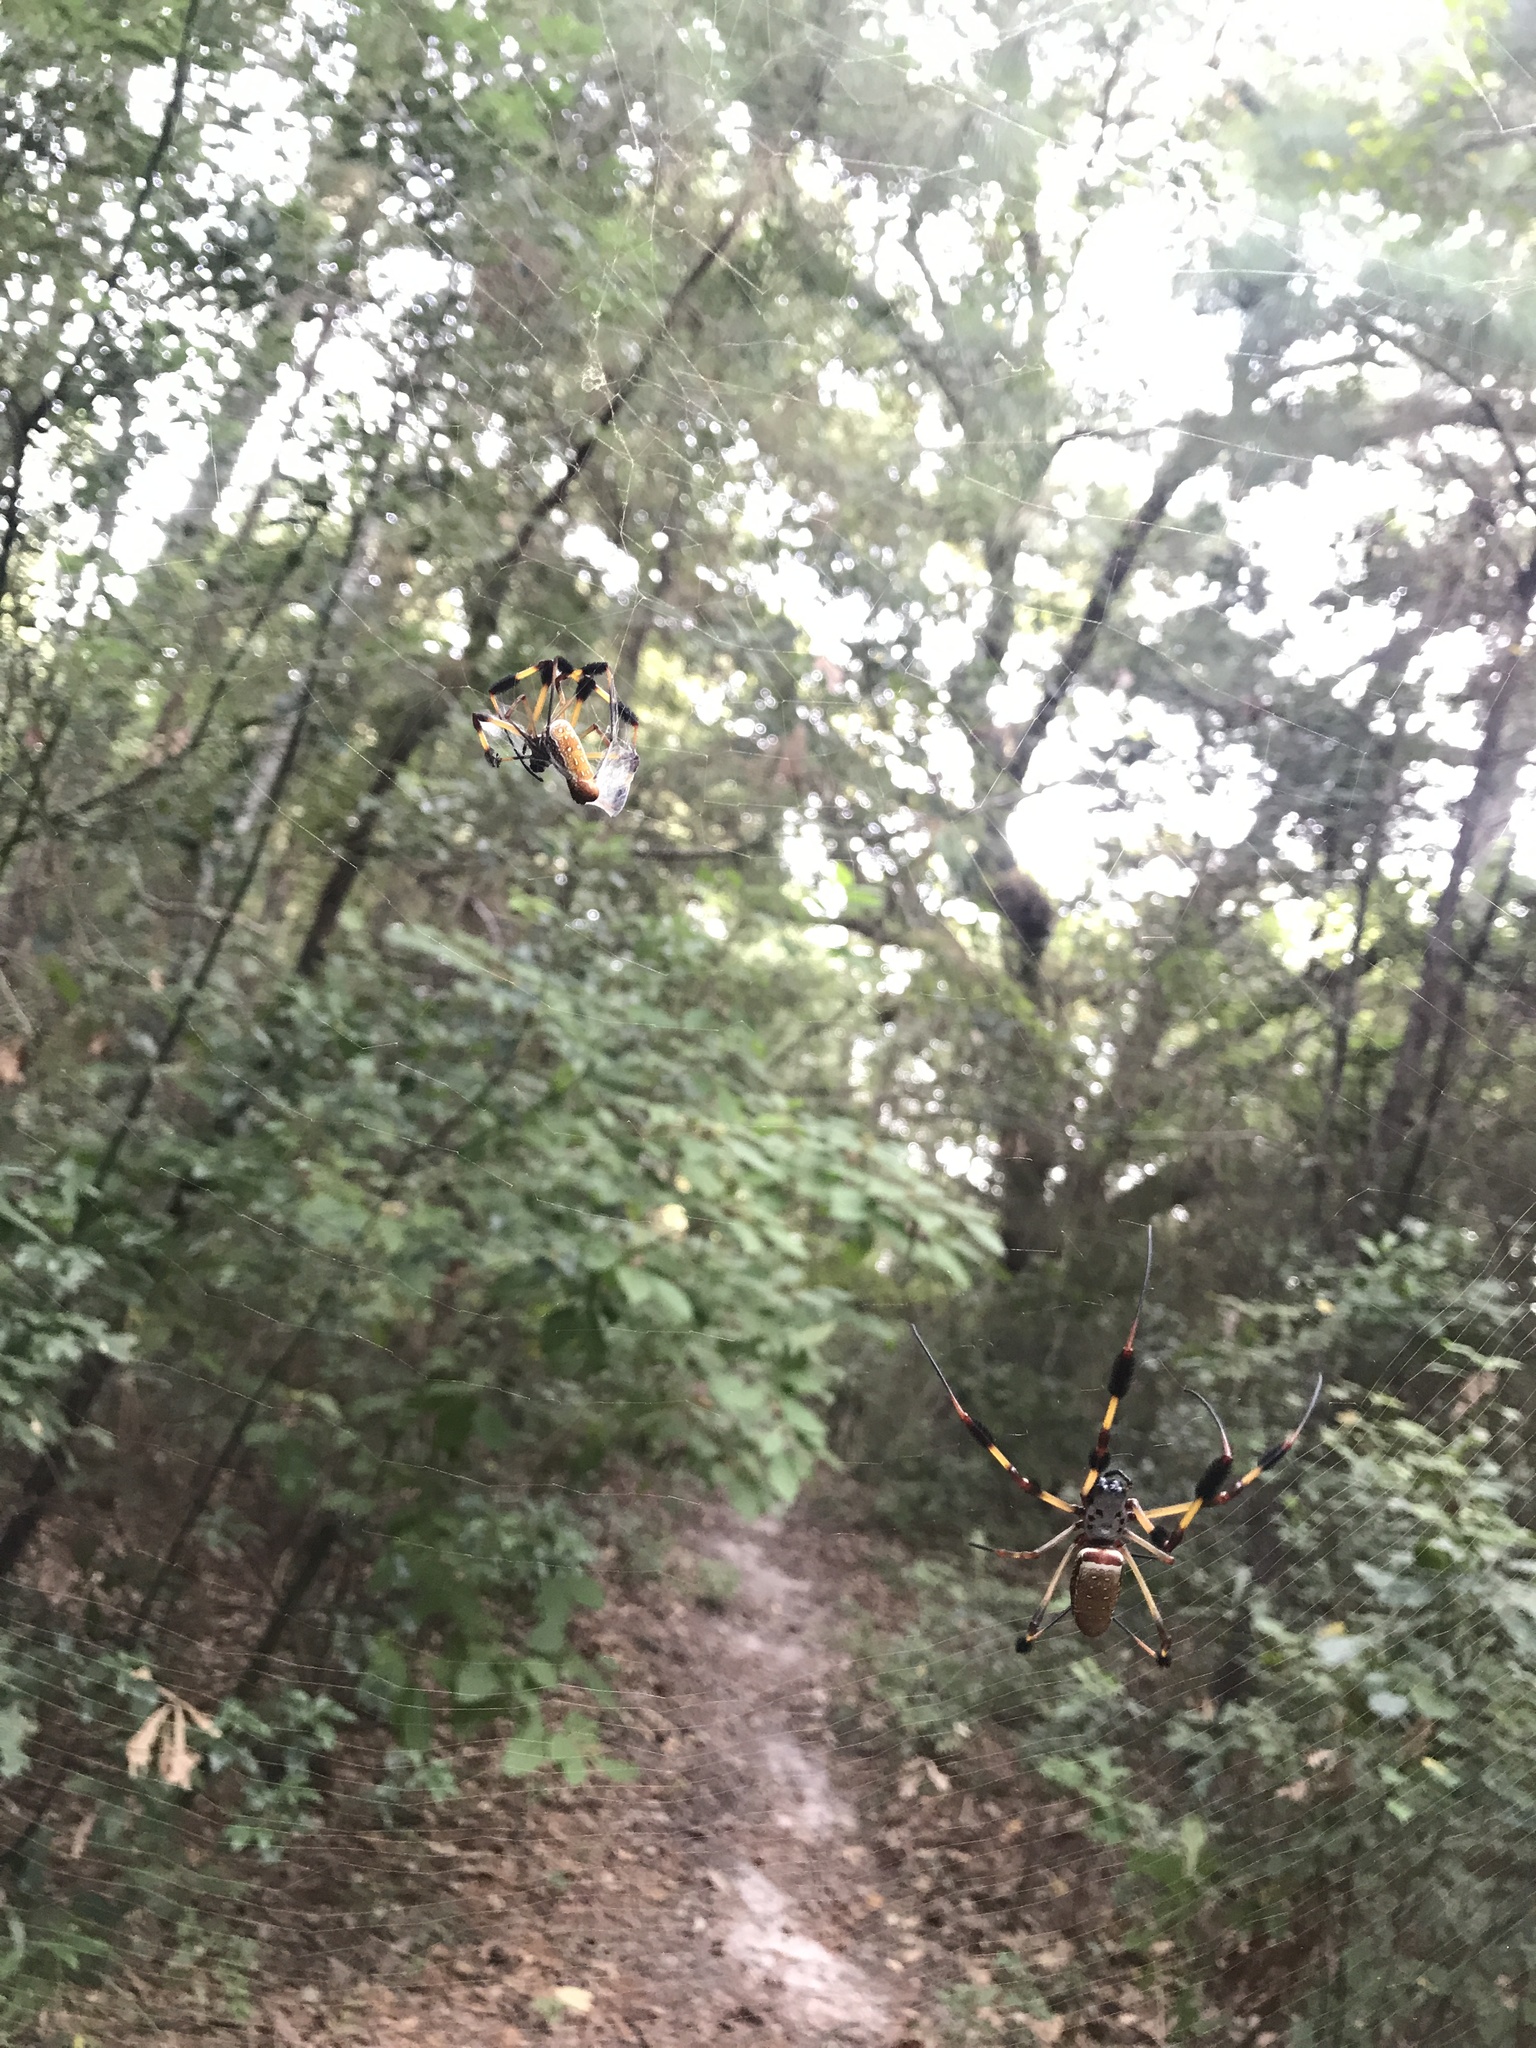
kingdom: Animalia
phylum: Arthropoda
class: Arachnida
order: Araneae
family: Araneidae
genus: Trichonephila
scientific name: Trichonephila clavipes
